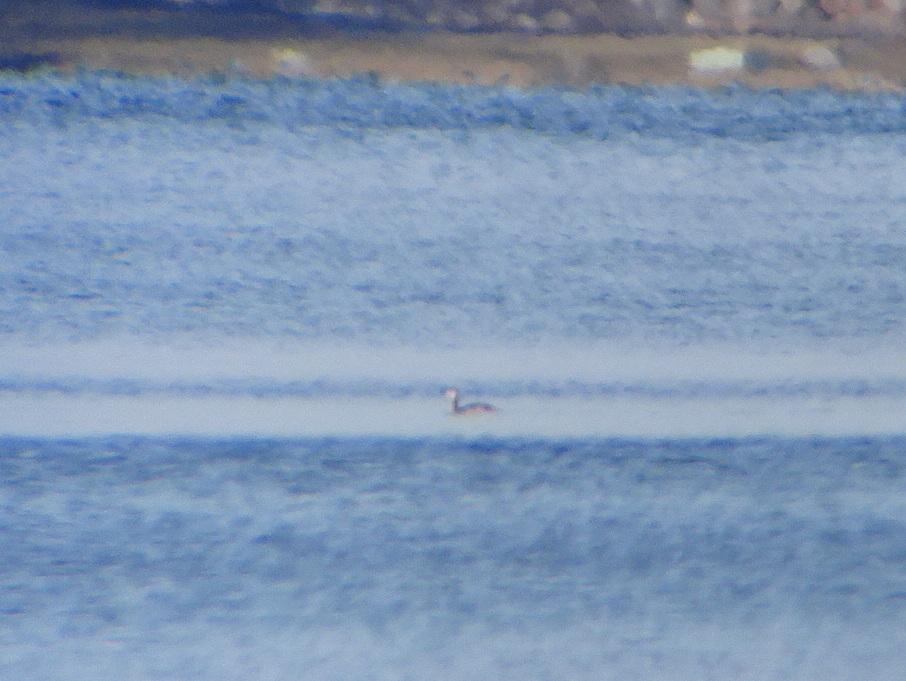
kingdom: Animalia
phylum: Chordata
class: Aves
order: Podicipediformes
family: Podicipedidae
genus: Podiceps
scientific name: Podiceps auritus
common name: Horned grebe
